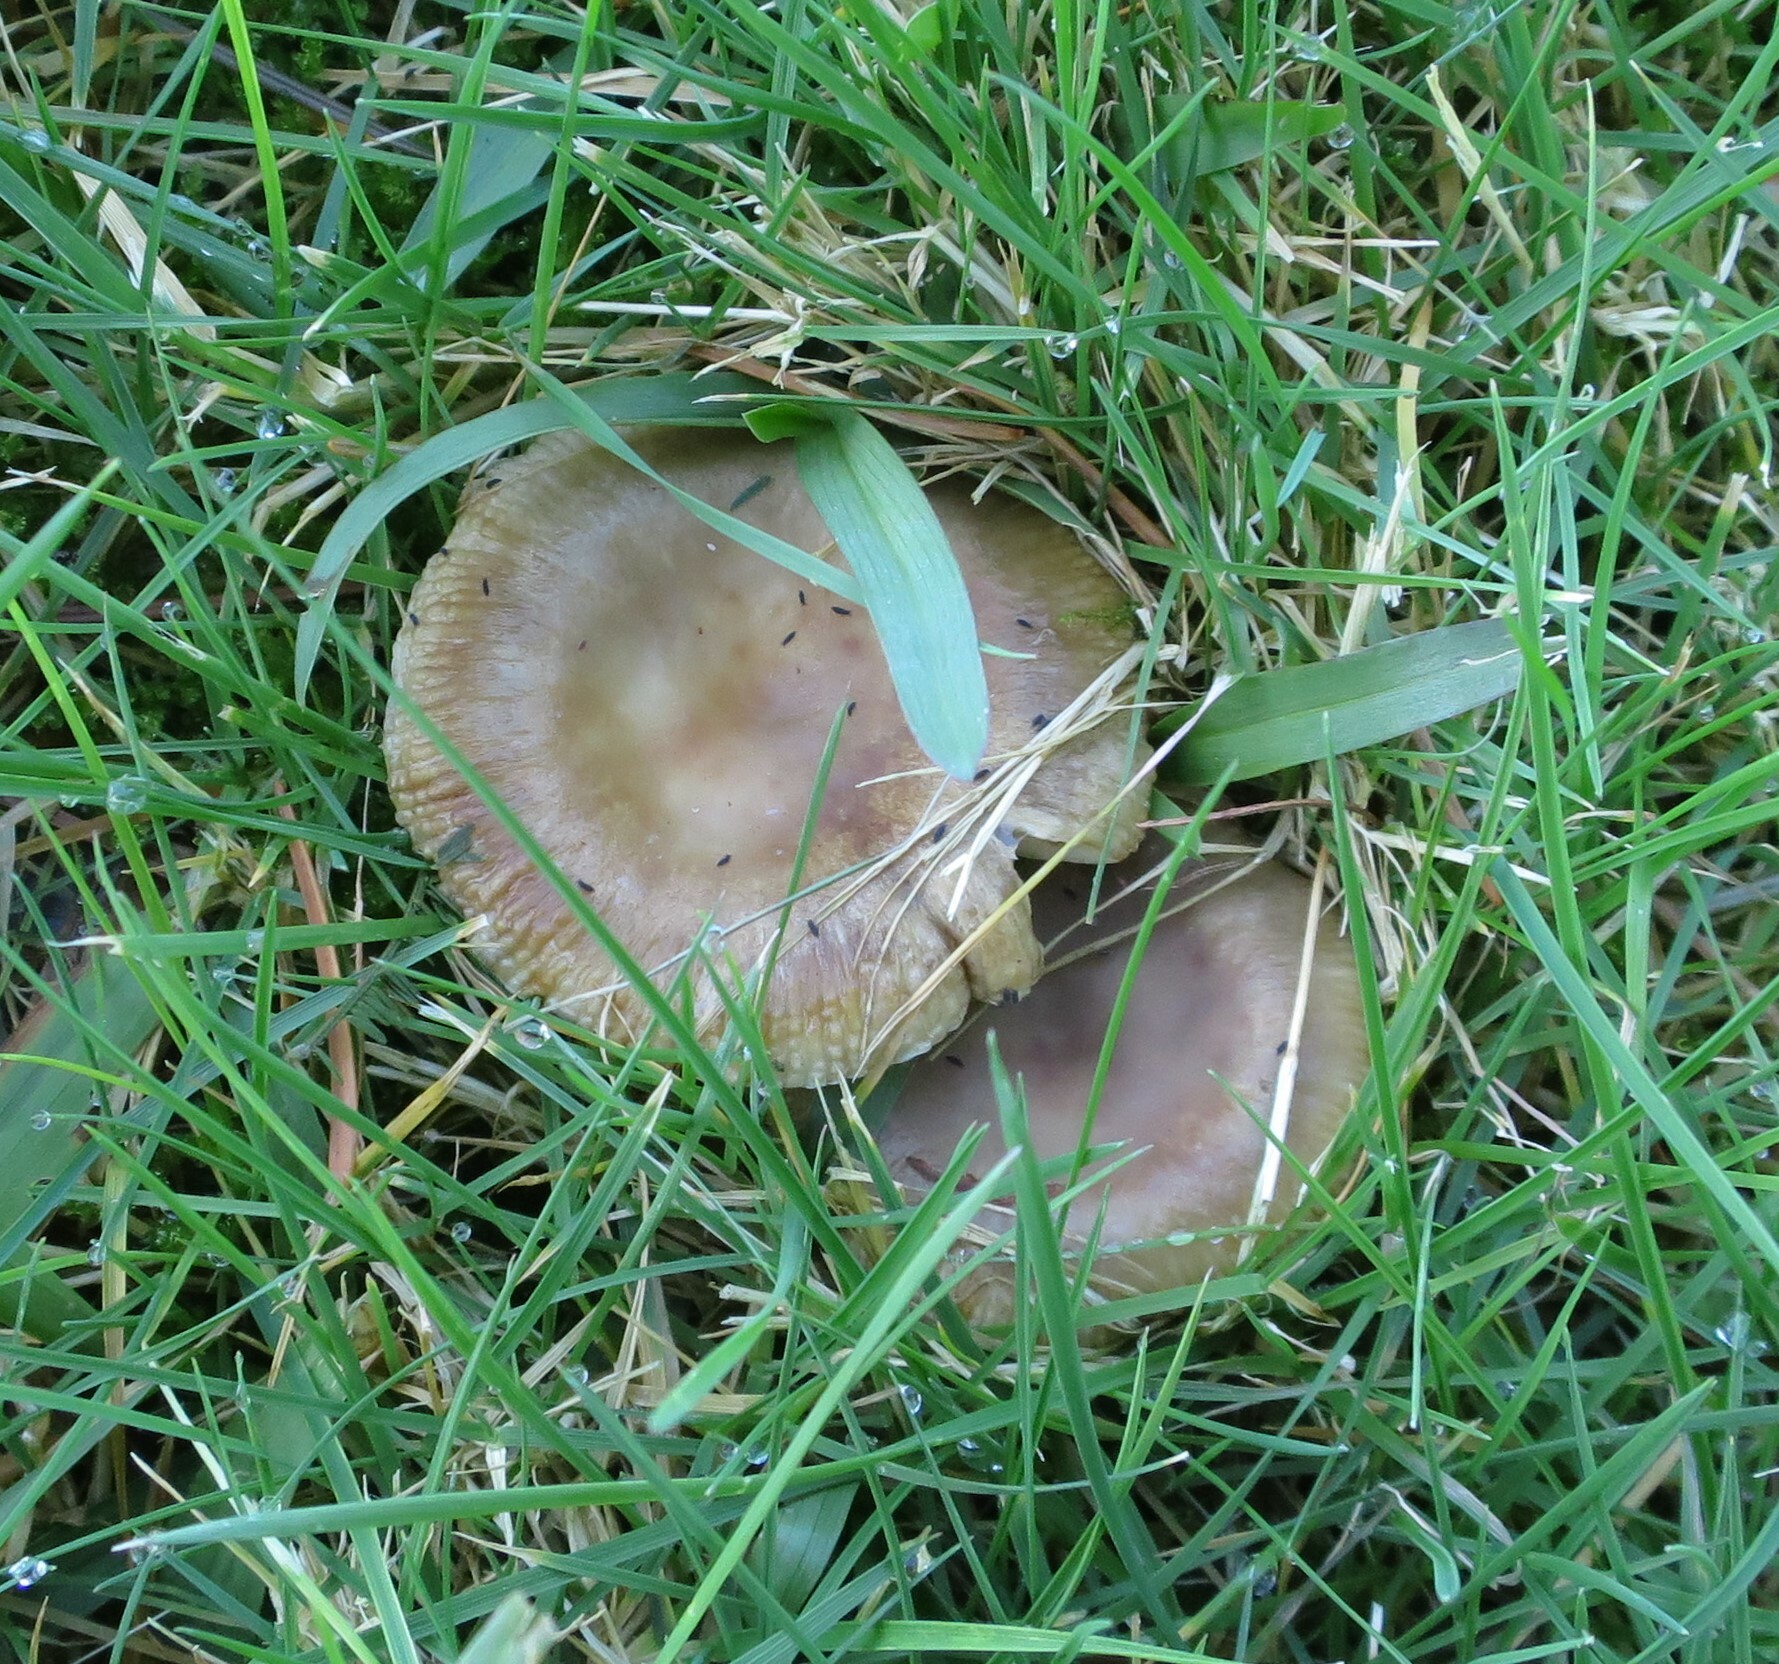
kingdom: Fungi
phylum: Basidiomycota
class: Agaricomycetes
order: Russulales
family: Russulaceae
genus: Russula
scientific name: Russula amoenolens
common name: Camembert brittlegill
